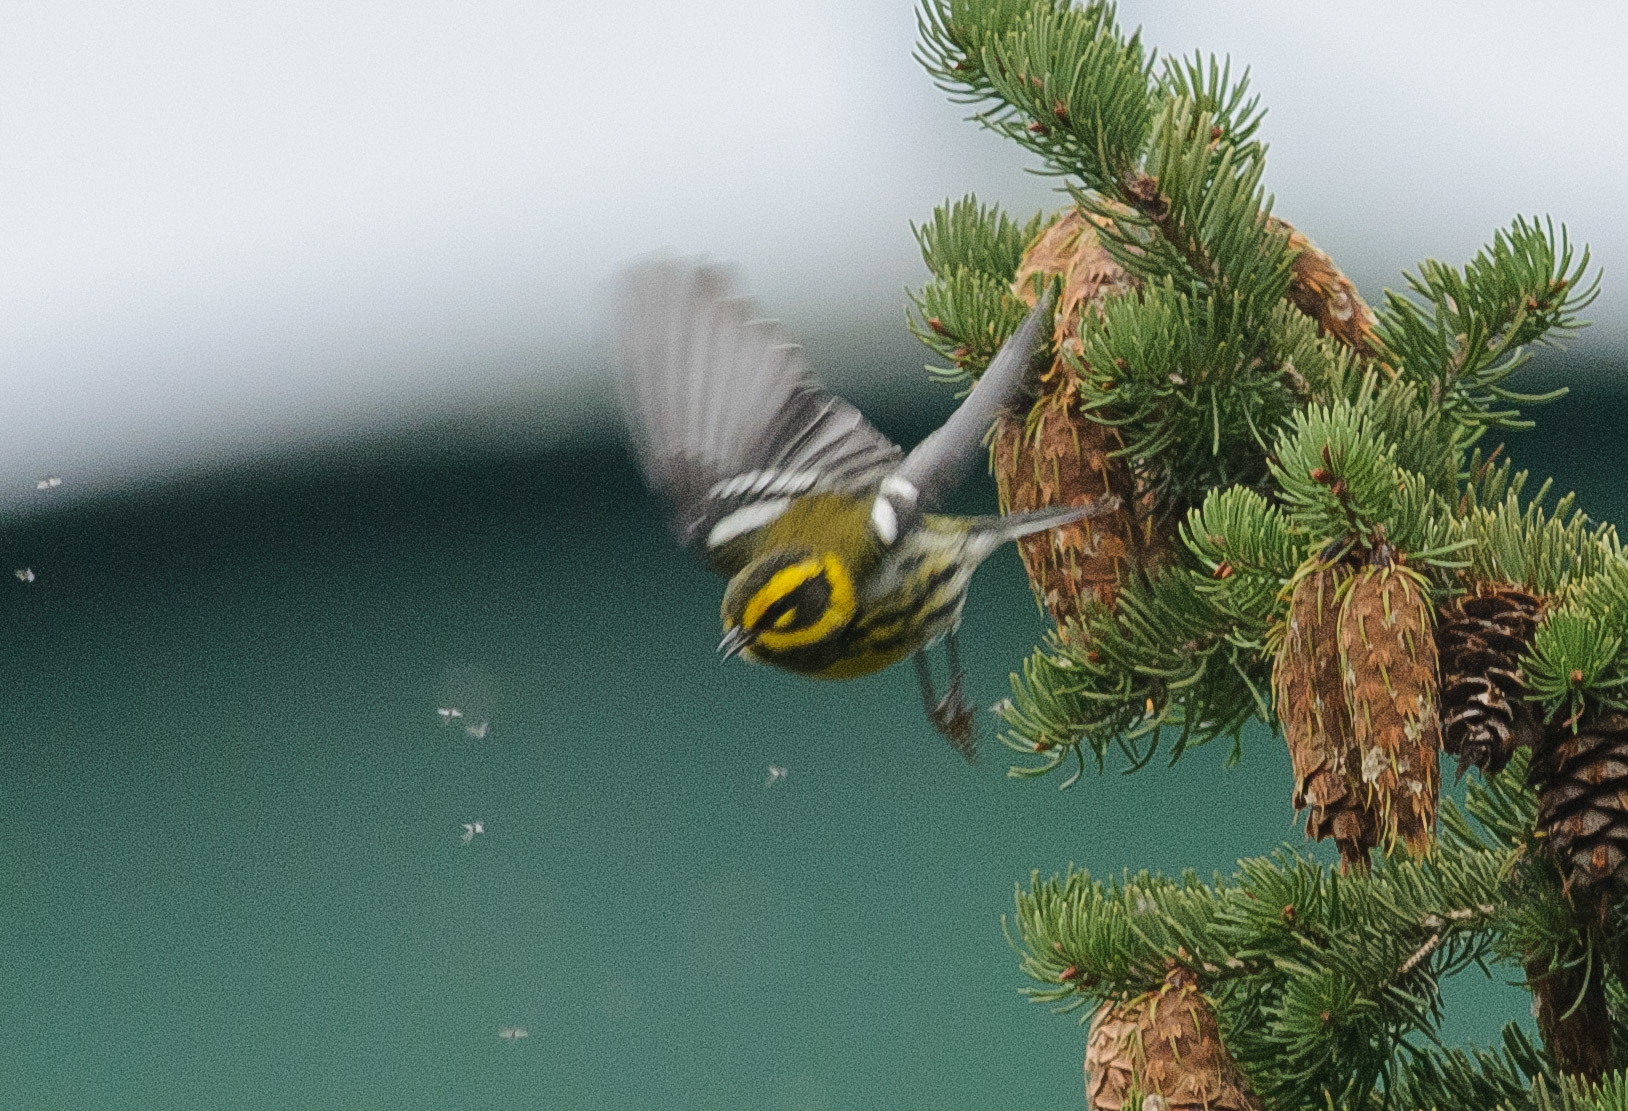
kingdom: Animalia
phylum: Chordata
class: Aves
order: Passeriformes
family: Parulidae
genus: Setophaga
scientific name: Setophaga townsendi
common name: Townsend's warbler
